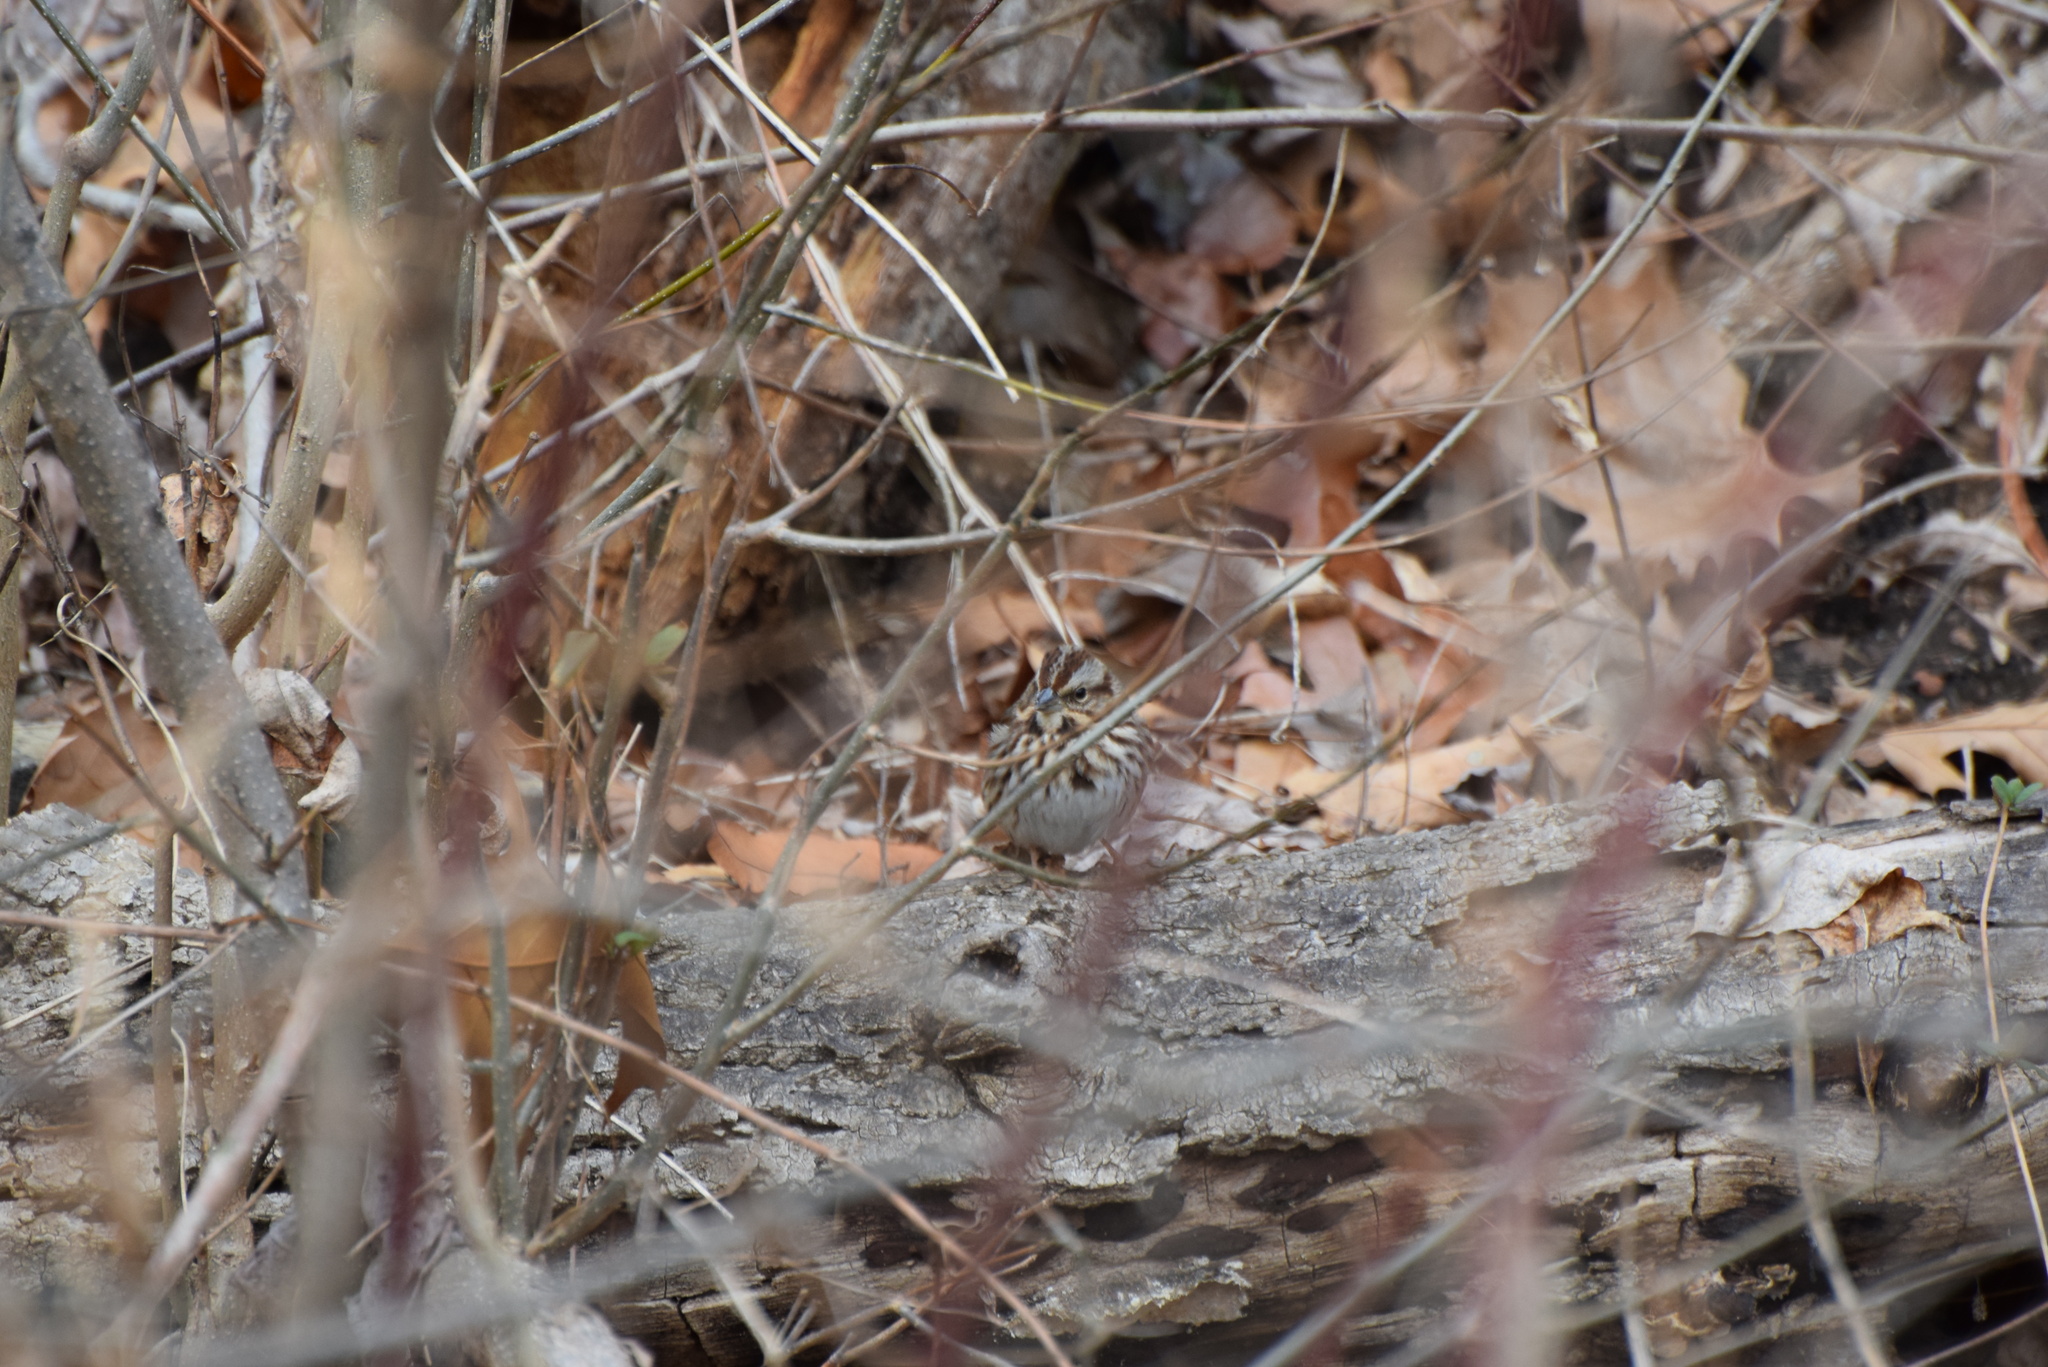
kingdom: Animalia
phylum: Chordata
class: Aves
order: Passeriformes
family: Passerellidae
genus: Melospiza
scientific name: Melospiza melodia
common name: Song sparrow
